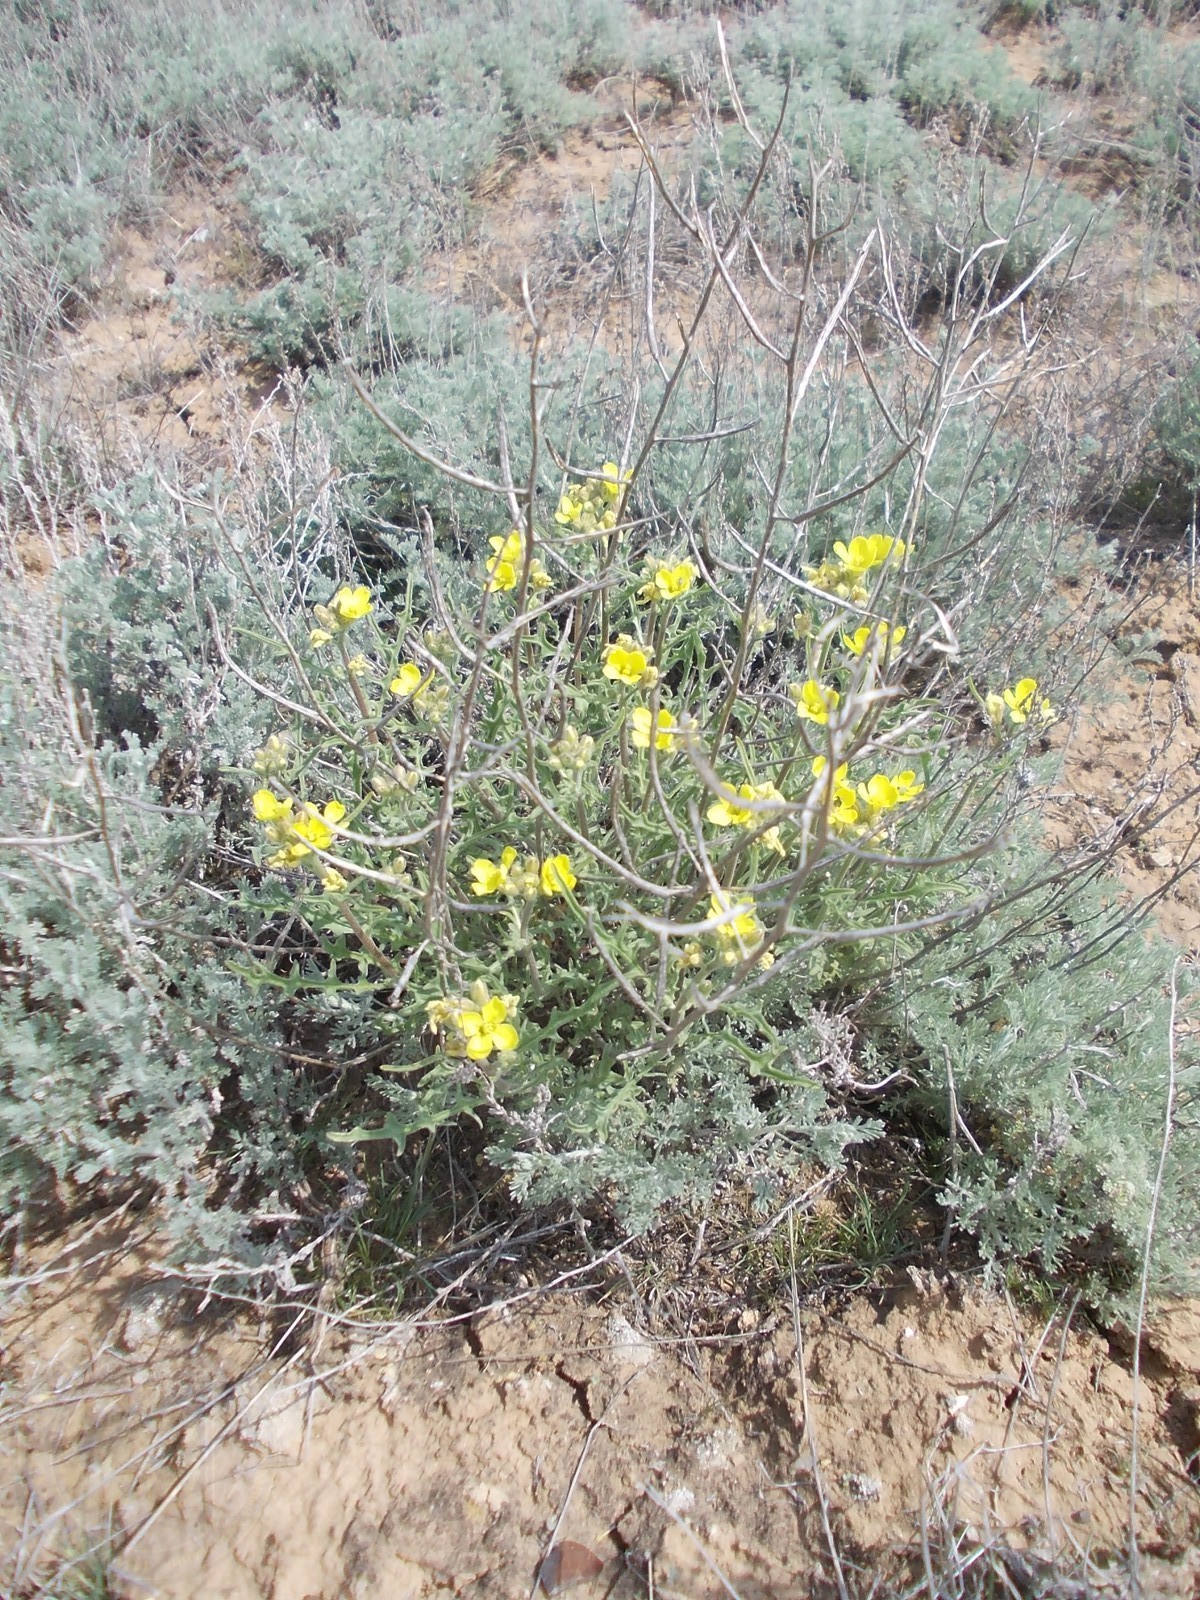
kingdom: Plantae
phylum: Tracheophyta
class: Magnoliopsida
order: Brassicales
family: Brassicaceae
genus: Sterigmostemum
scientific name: Sterigmostemum caspicum
